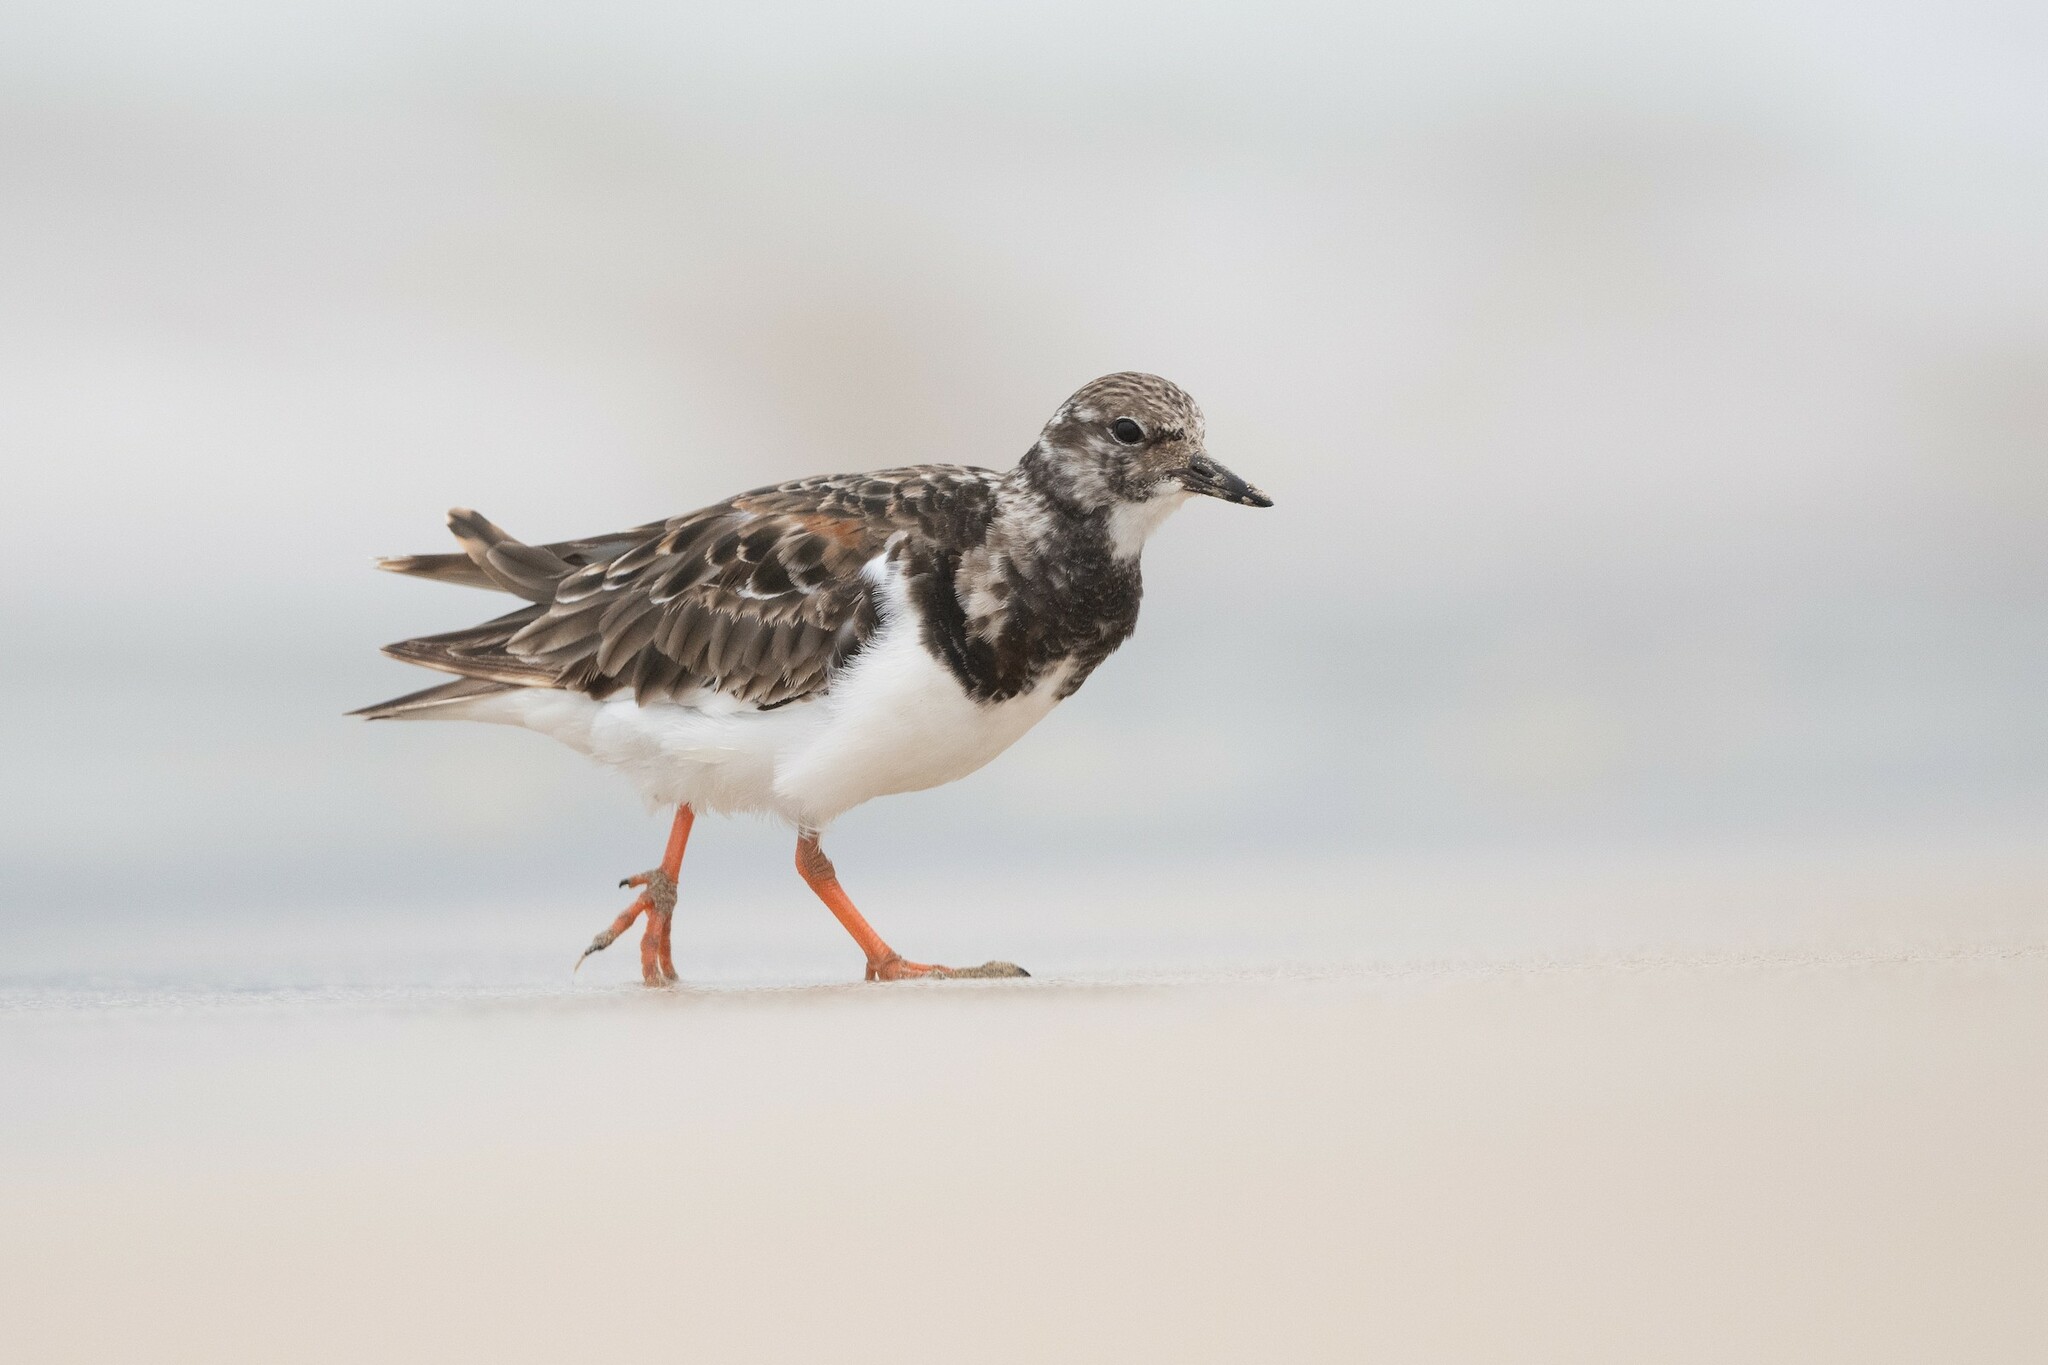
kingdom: Animalia
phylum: Chordata
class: Aves
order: Charadriiformes
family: Scolopacidae
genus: Arenaria
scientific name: Arenaria interpres
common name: Ruddy turnstone
